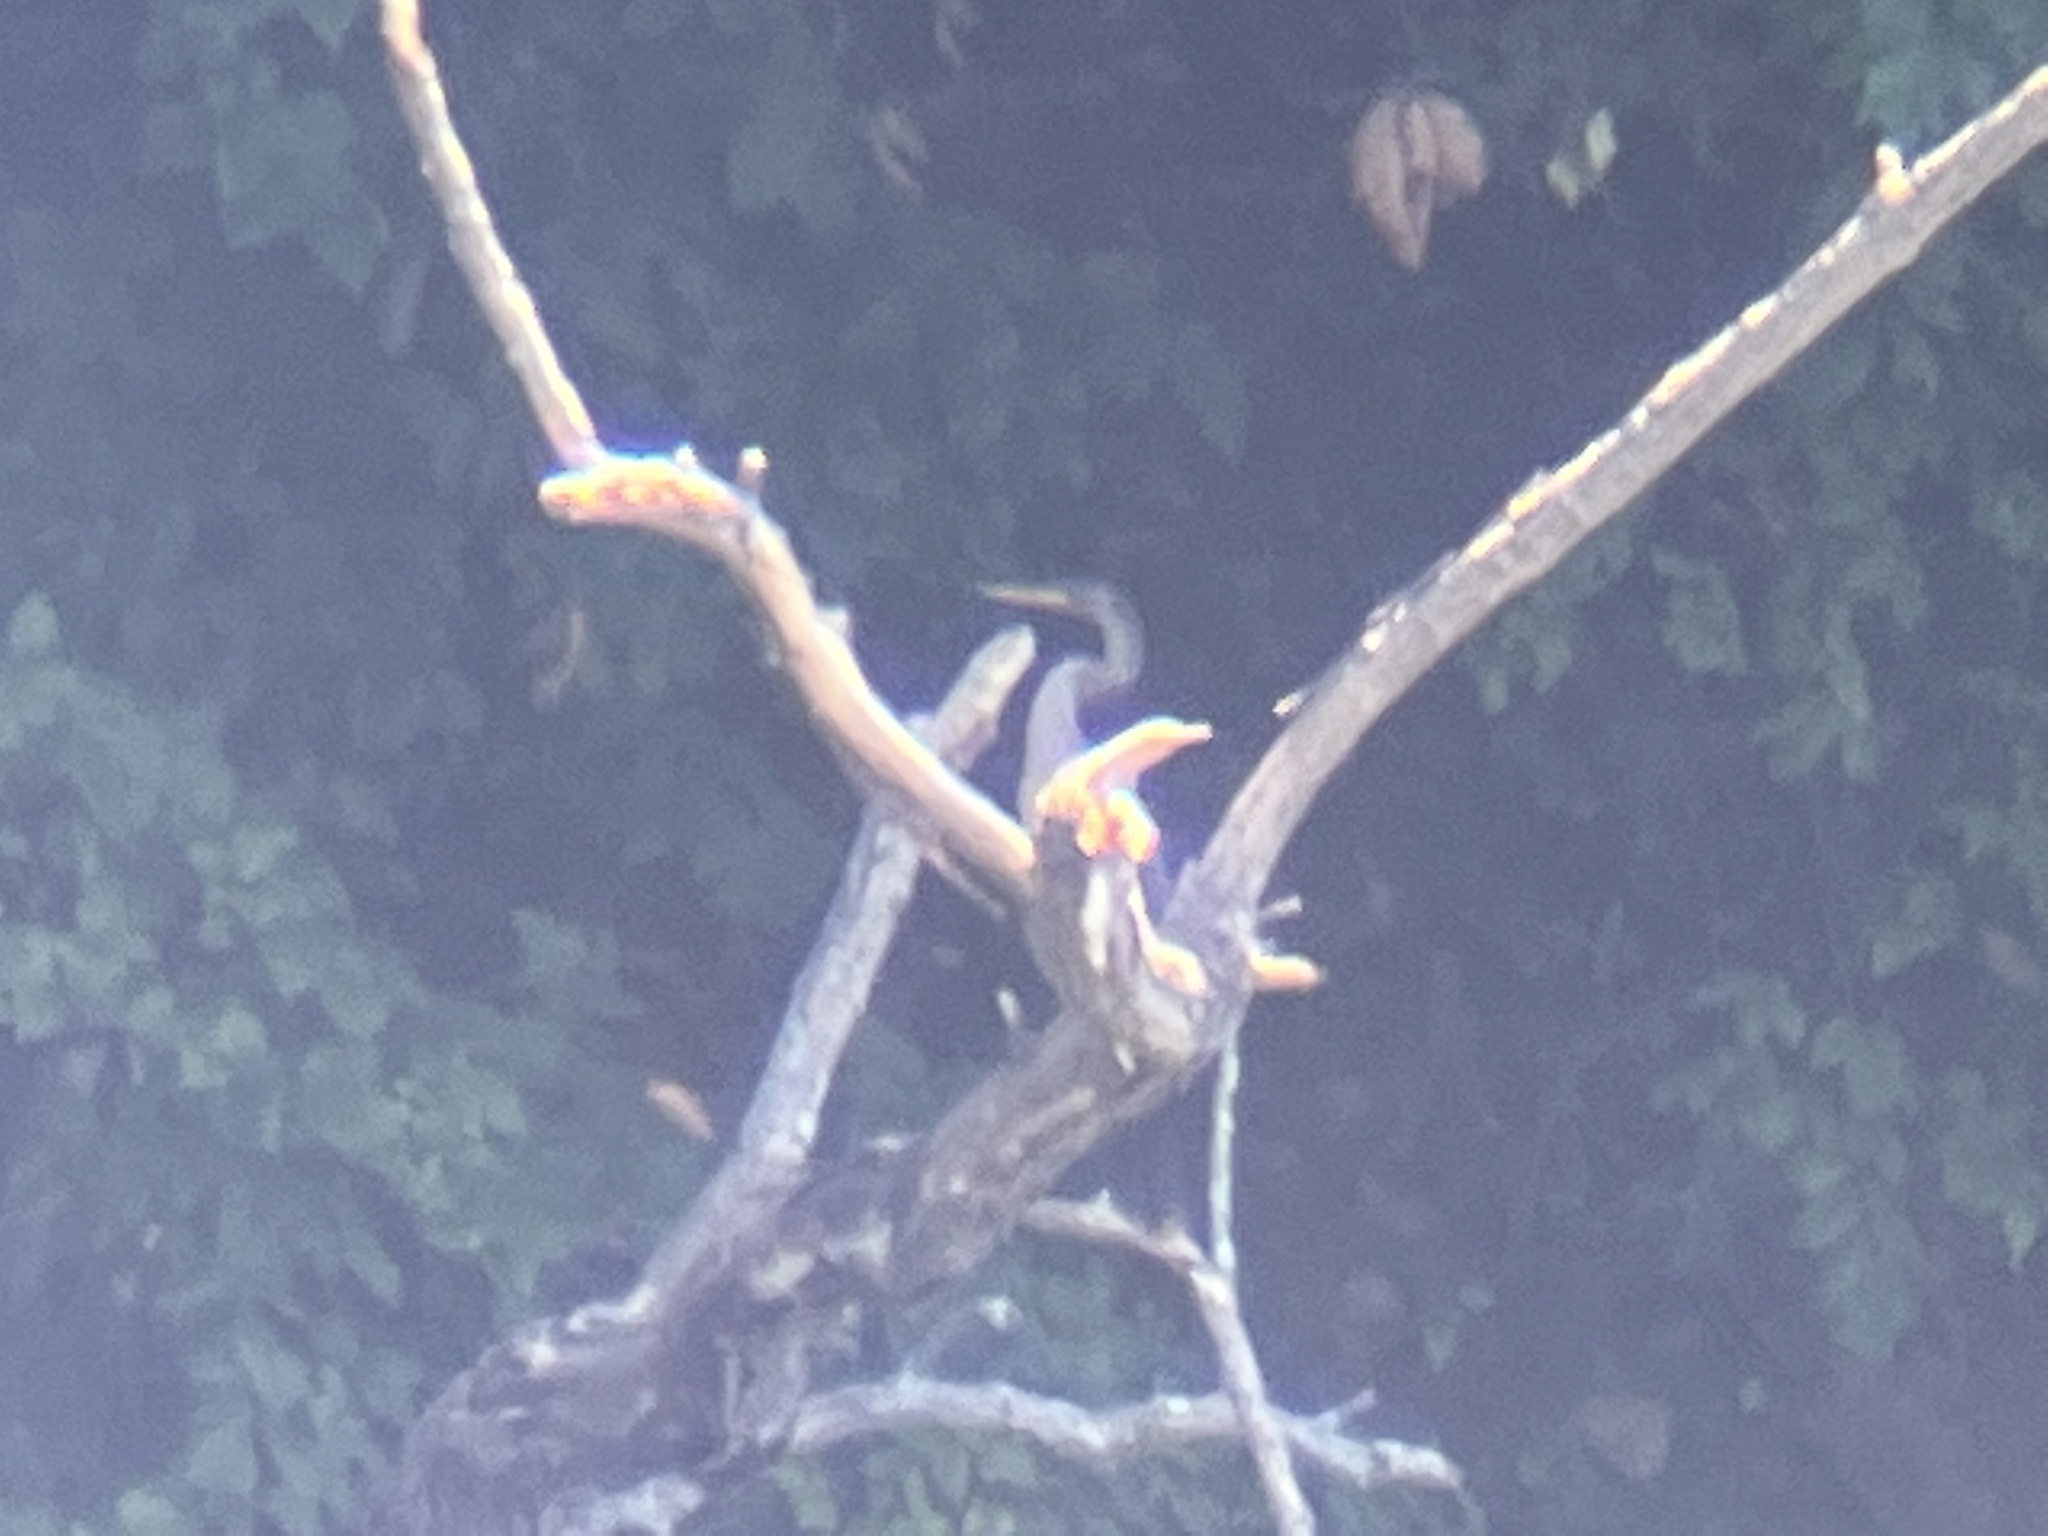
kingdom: Animalia
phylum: Chordata
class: Aves
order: Suliformes
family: Anhingidae
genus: Anhinga
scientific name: Anhinga anhinga
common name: Anhinga
